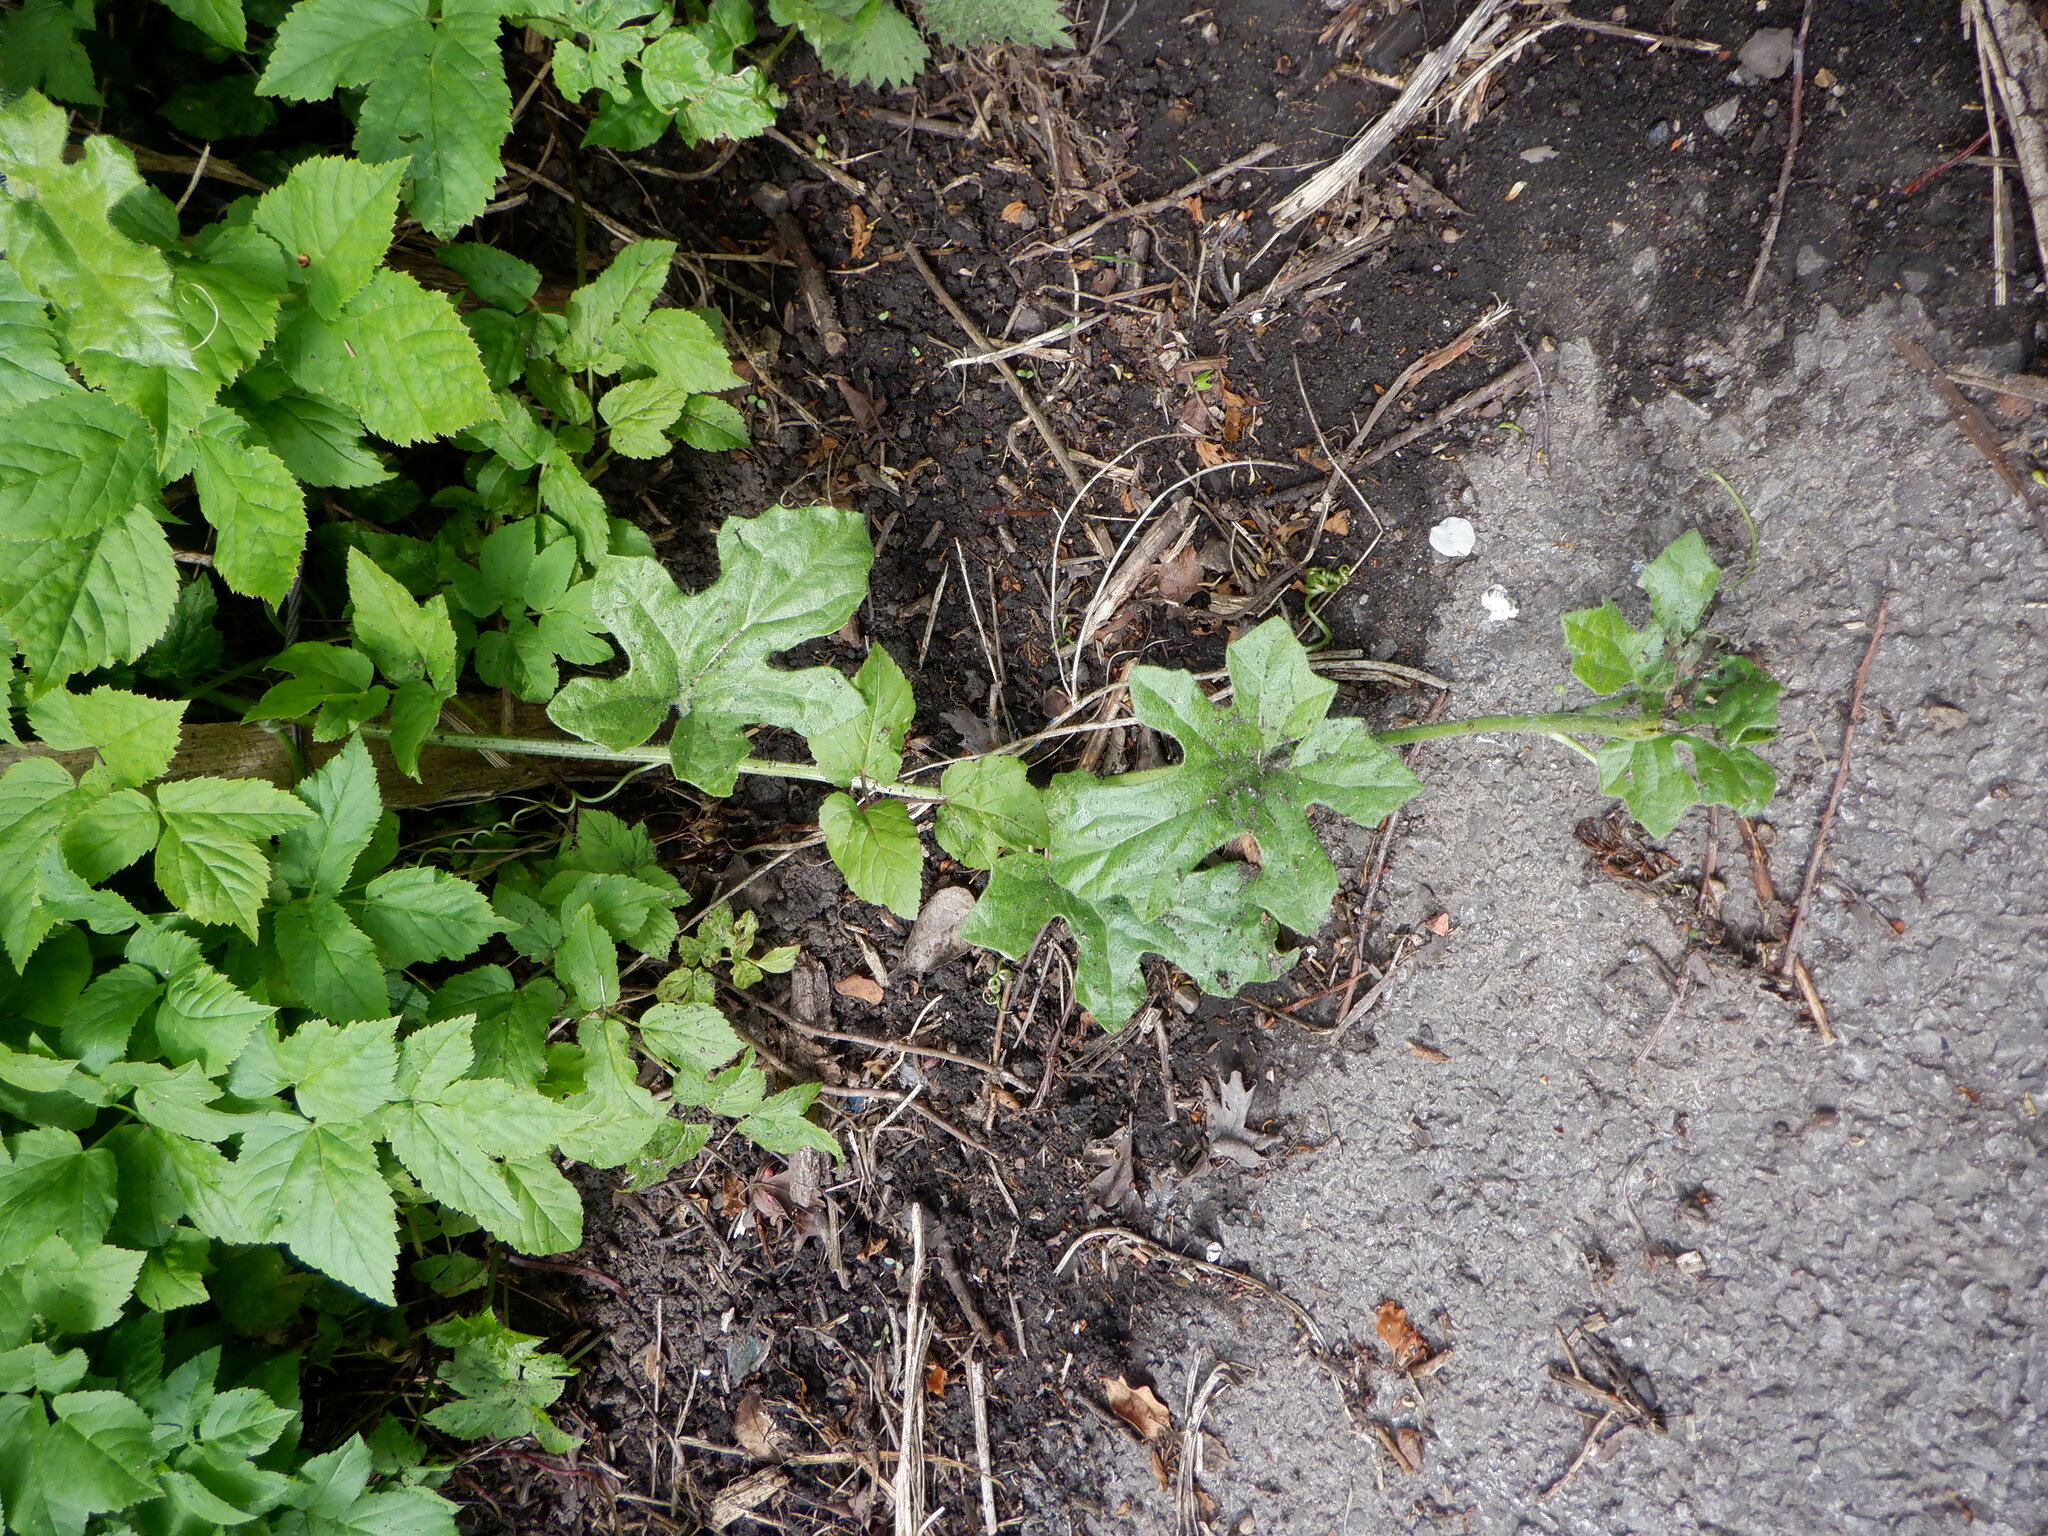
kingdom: Plantae
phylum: Tracheophyta
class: Magnoliopsida
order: Cucurbitales
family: Cucurbitaceae
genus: Bryonia
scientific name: Bryonia cretica
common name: Cretan bryony
